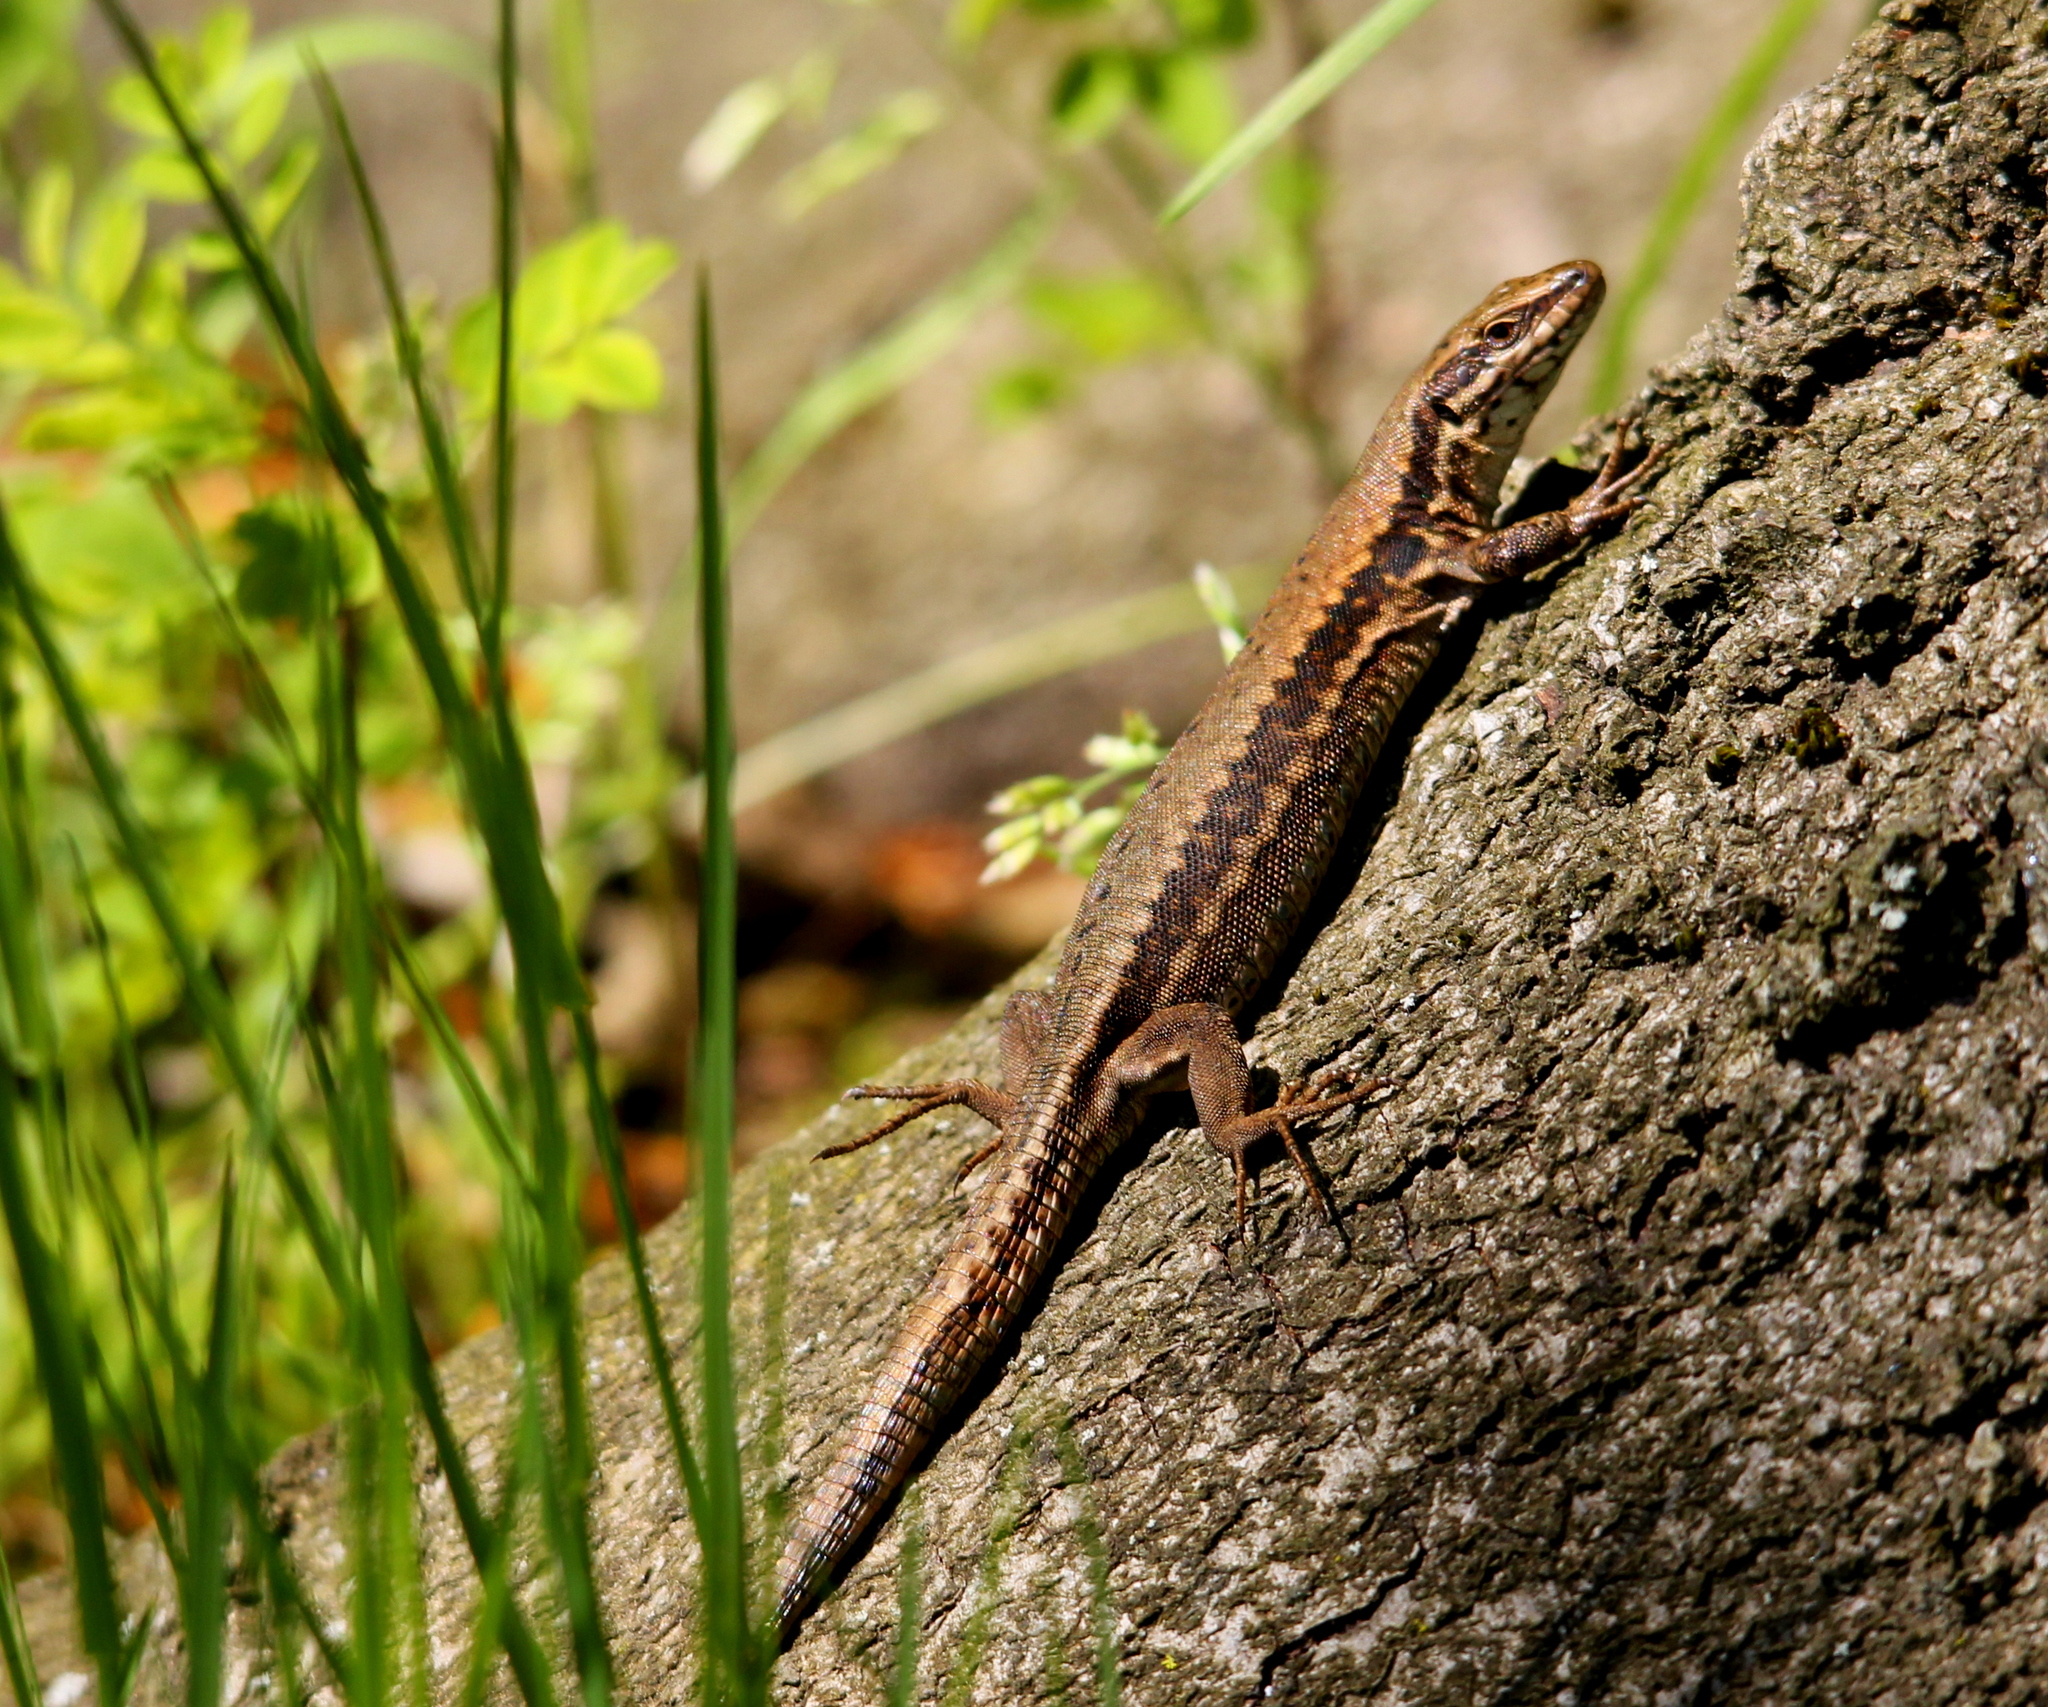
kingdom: Animalia
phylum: Chordata
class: Squamata
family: Lacertidae
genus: Podarcis
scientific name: Podarcis muralis
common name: Common wall lizard
